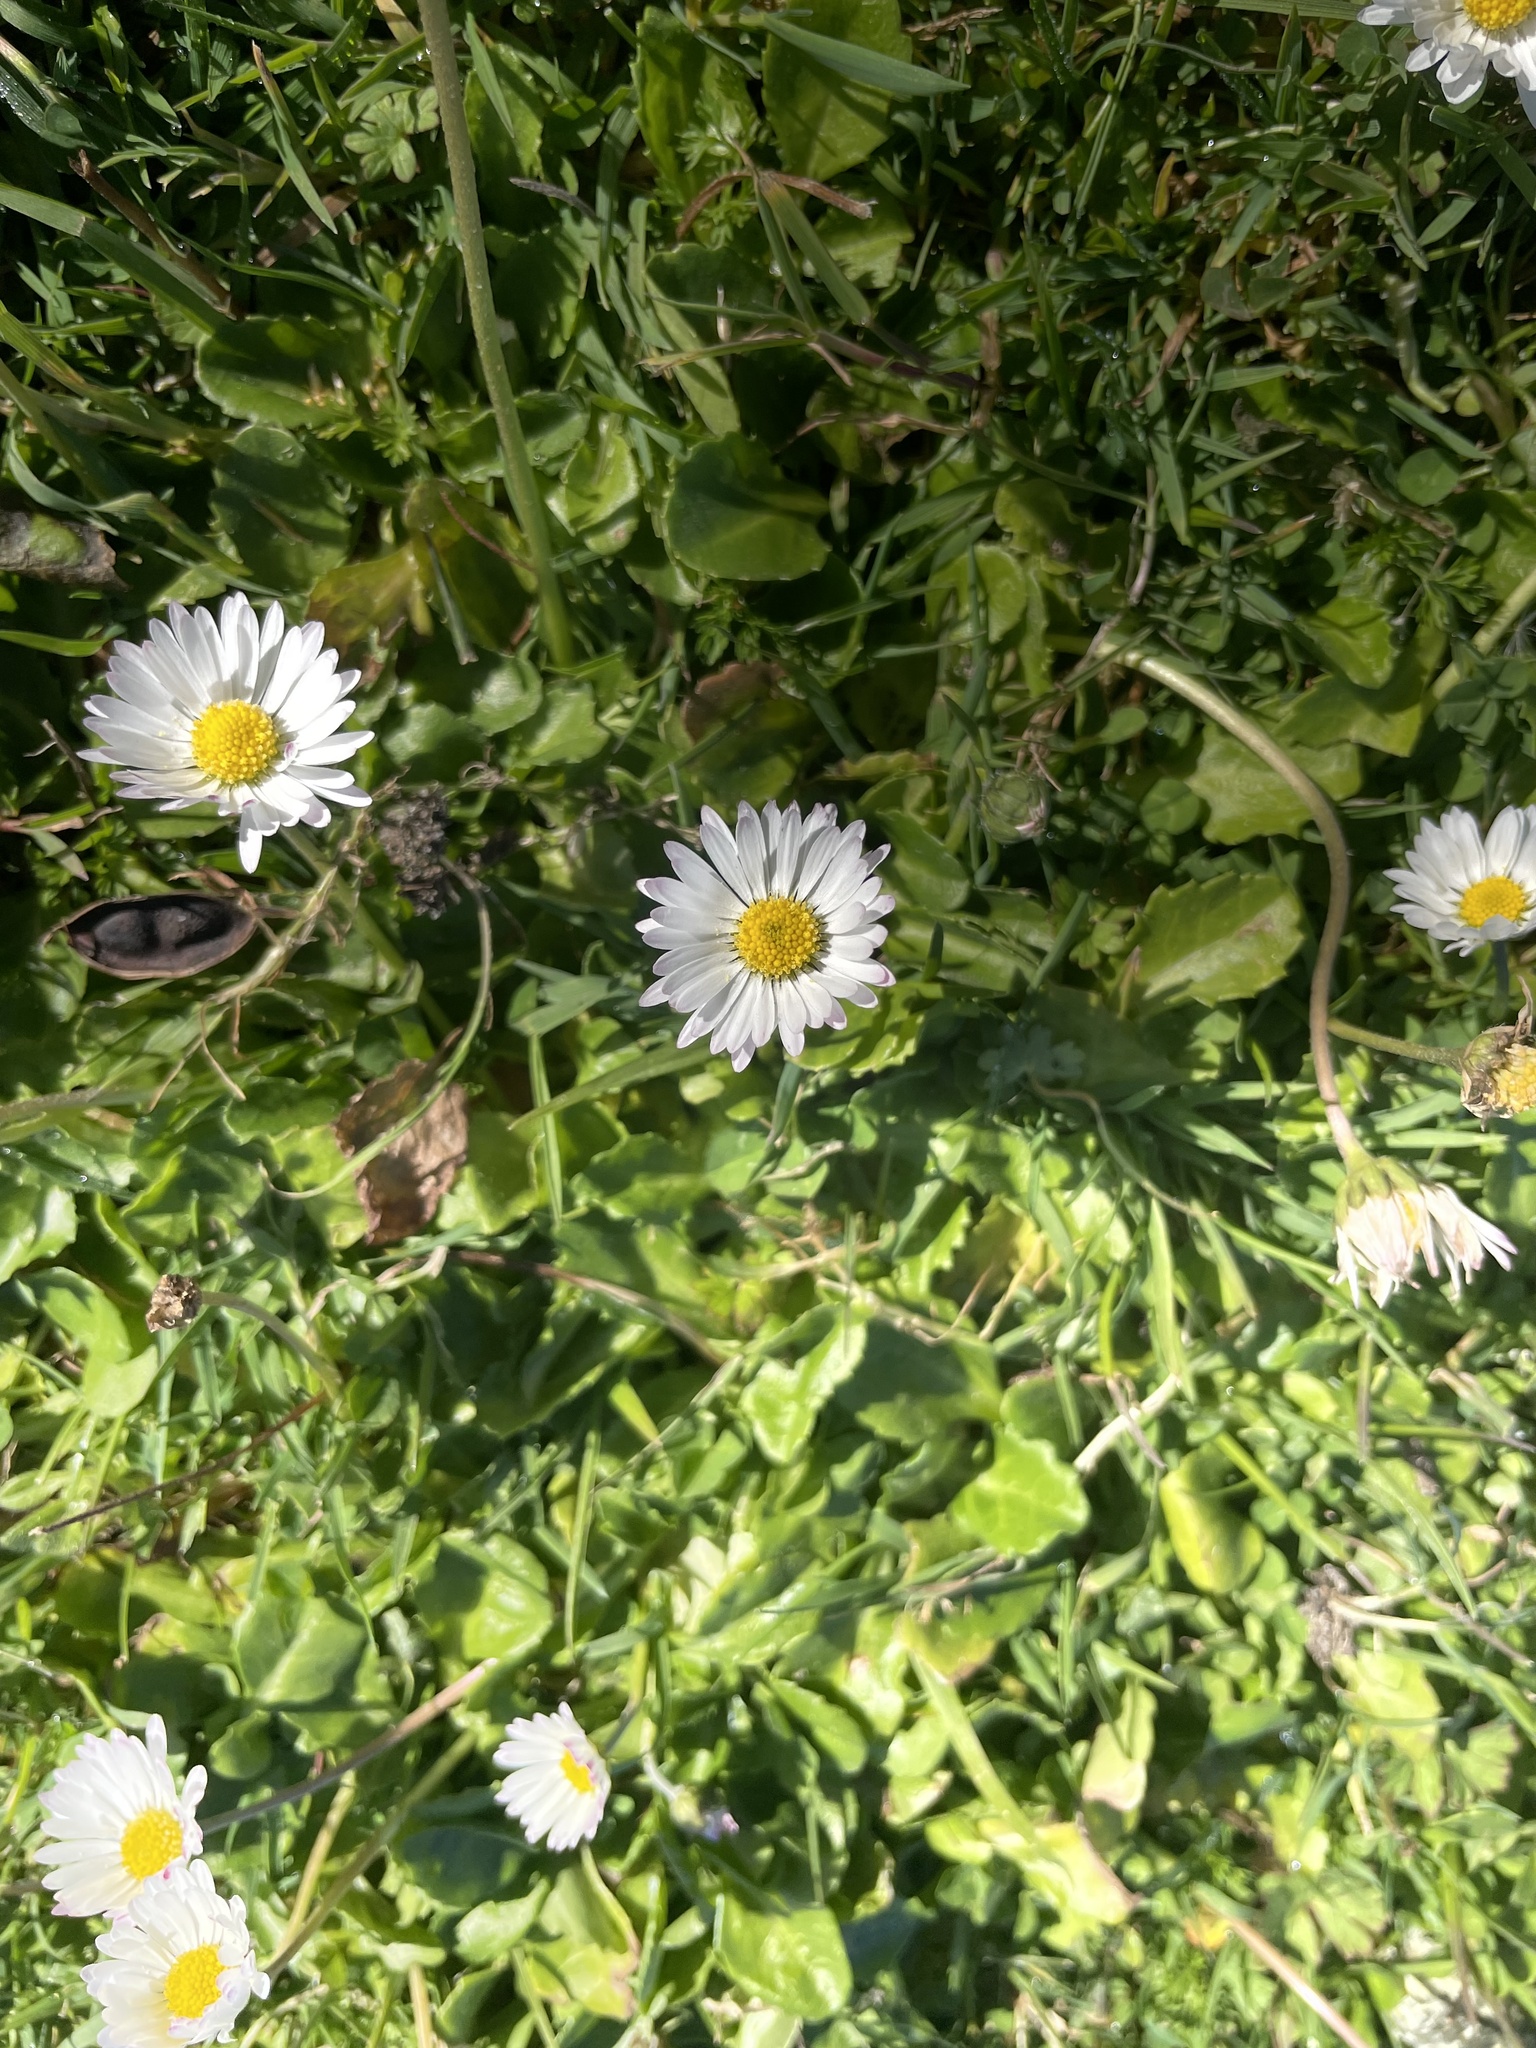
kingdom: Plantae
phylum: Tracheophyta
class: Magnoliopsida
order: Asterales
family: Asteraceae
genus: Bellis
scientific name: Bellis perennis
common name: Lawndaisy
